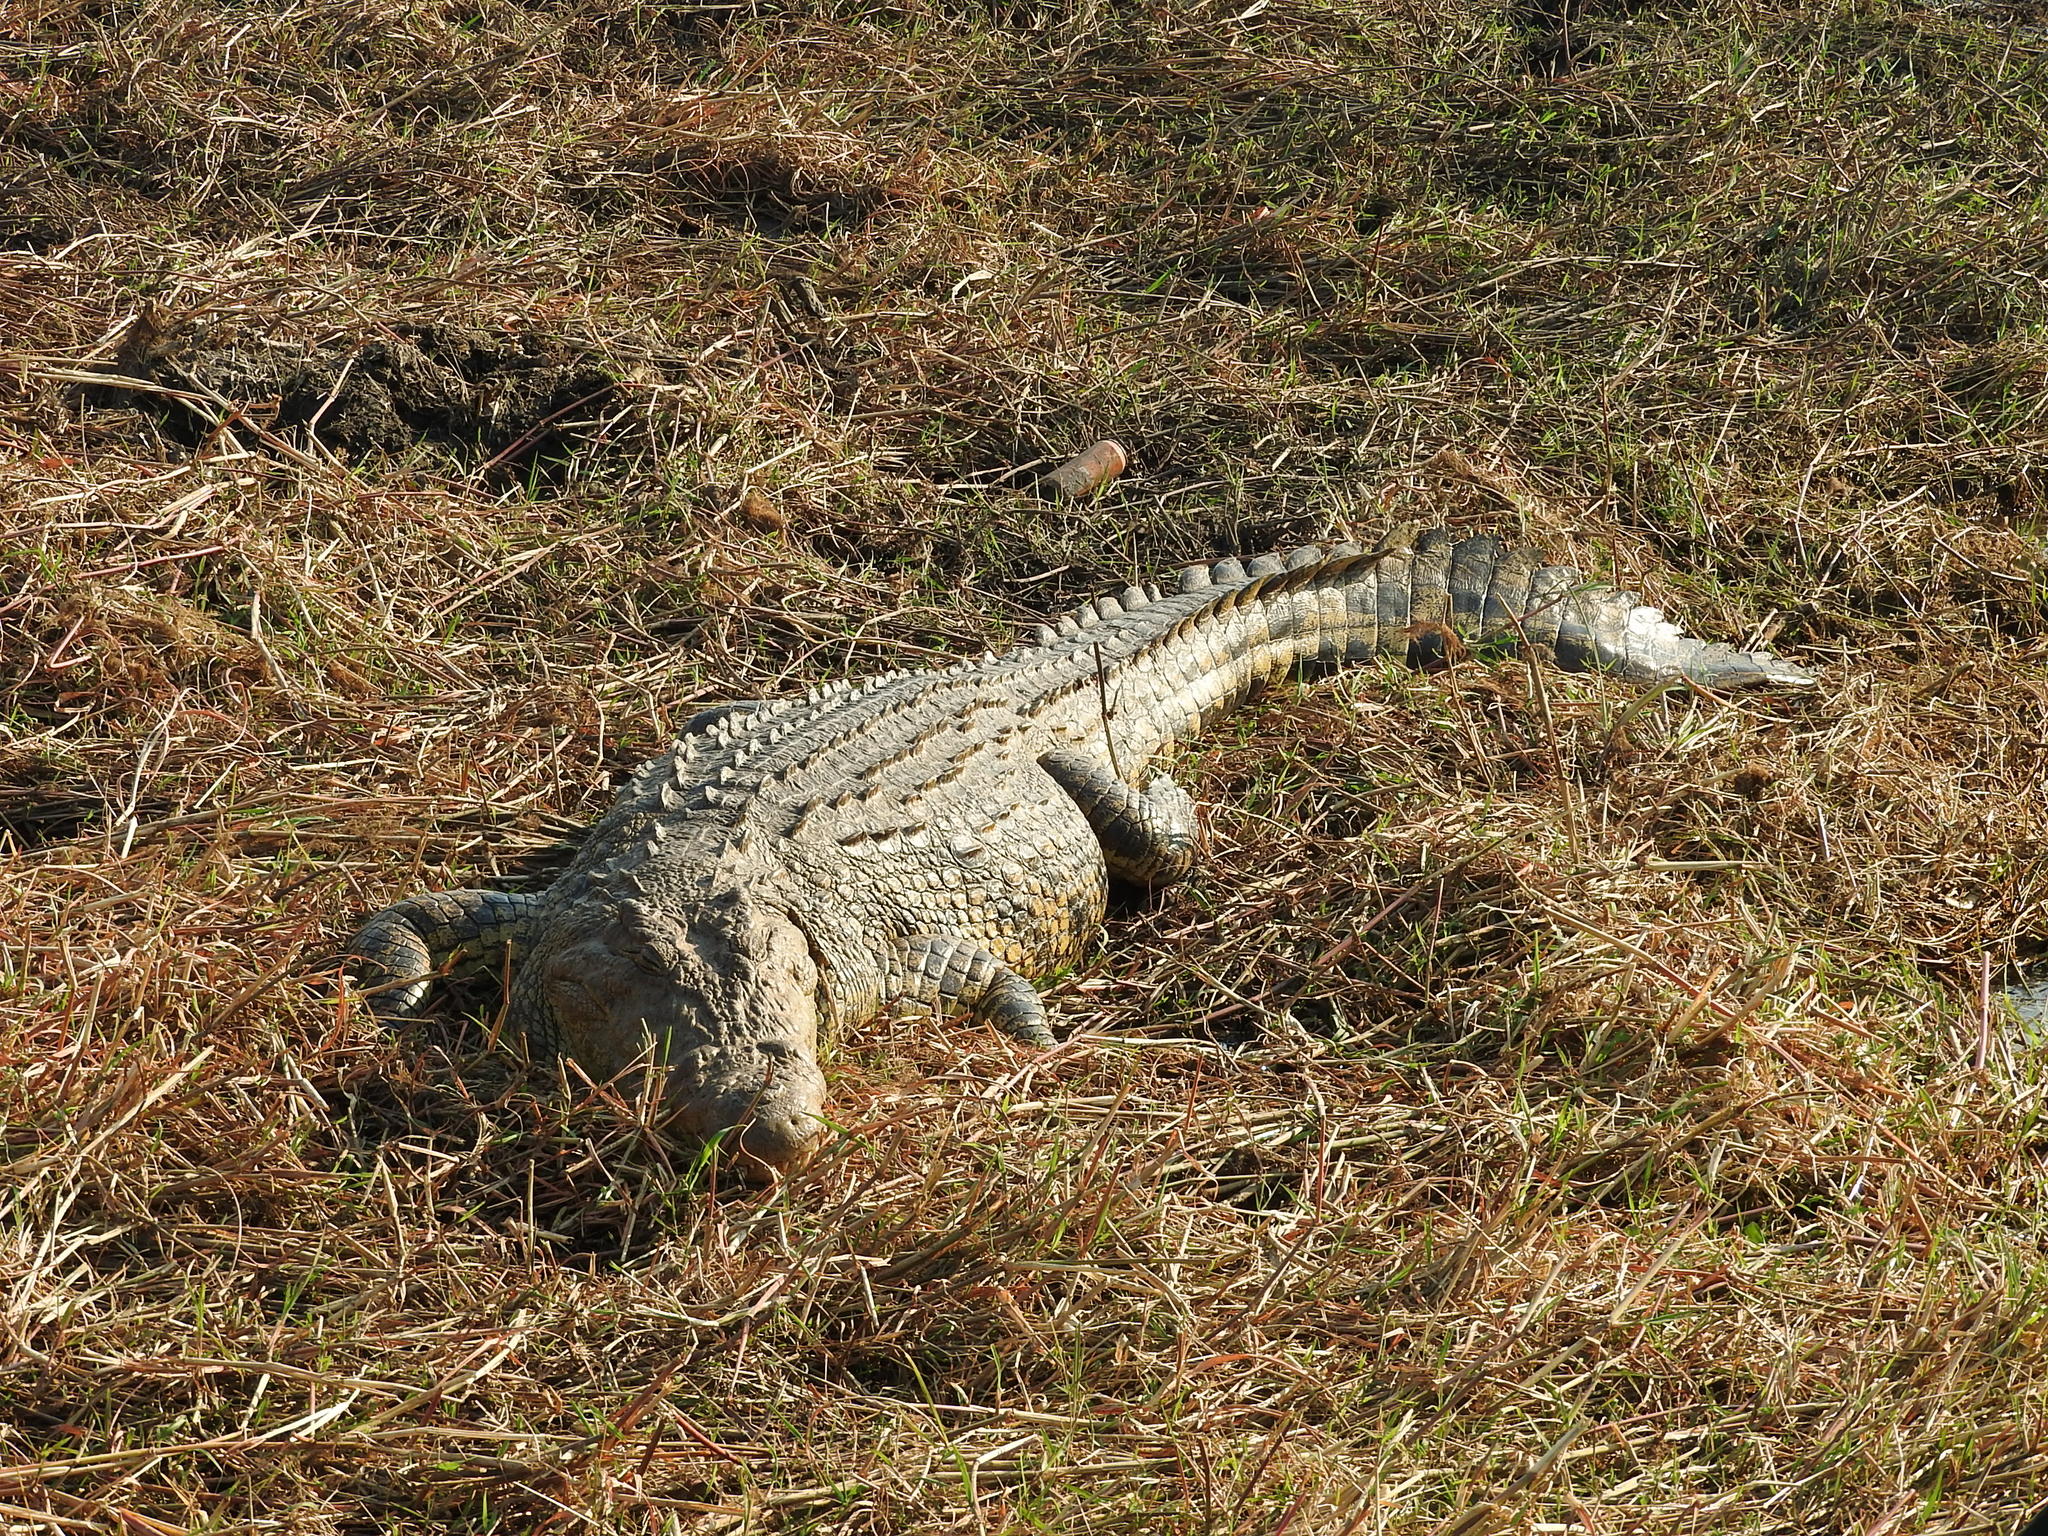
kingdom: Animalia
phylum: Chordata
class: Crocodylia
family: Crocodylidae
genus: Crocodylus
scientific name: Crocodylus niloticus
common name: Nile crocodile
